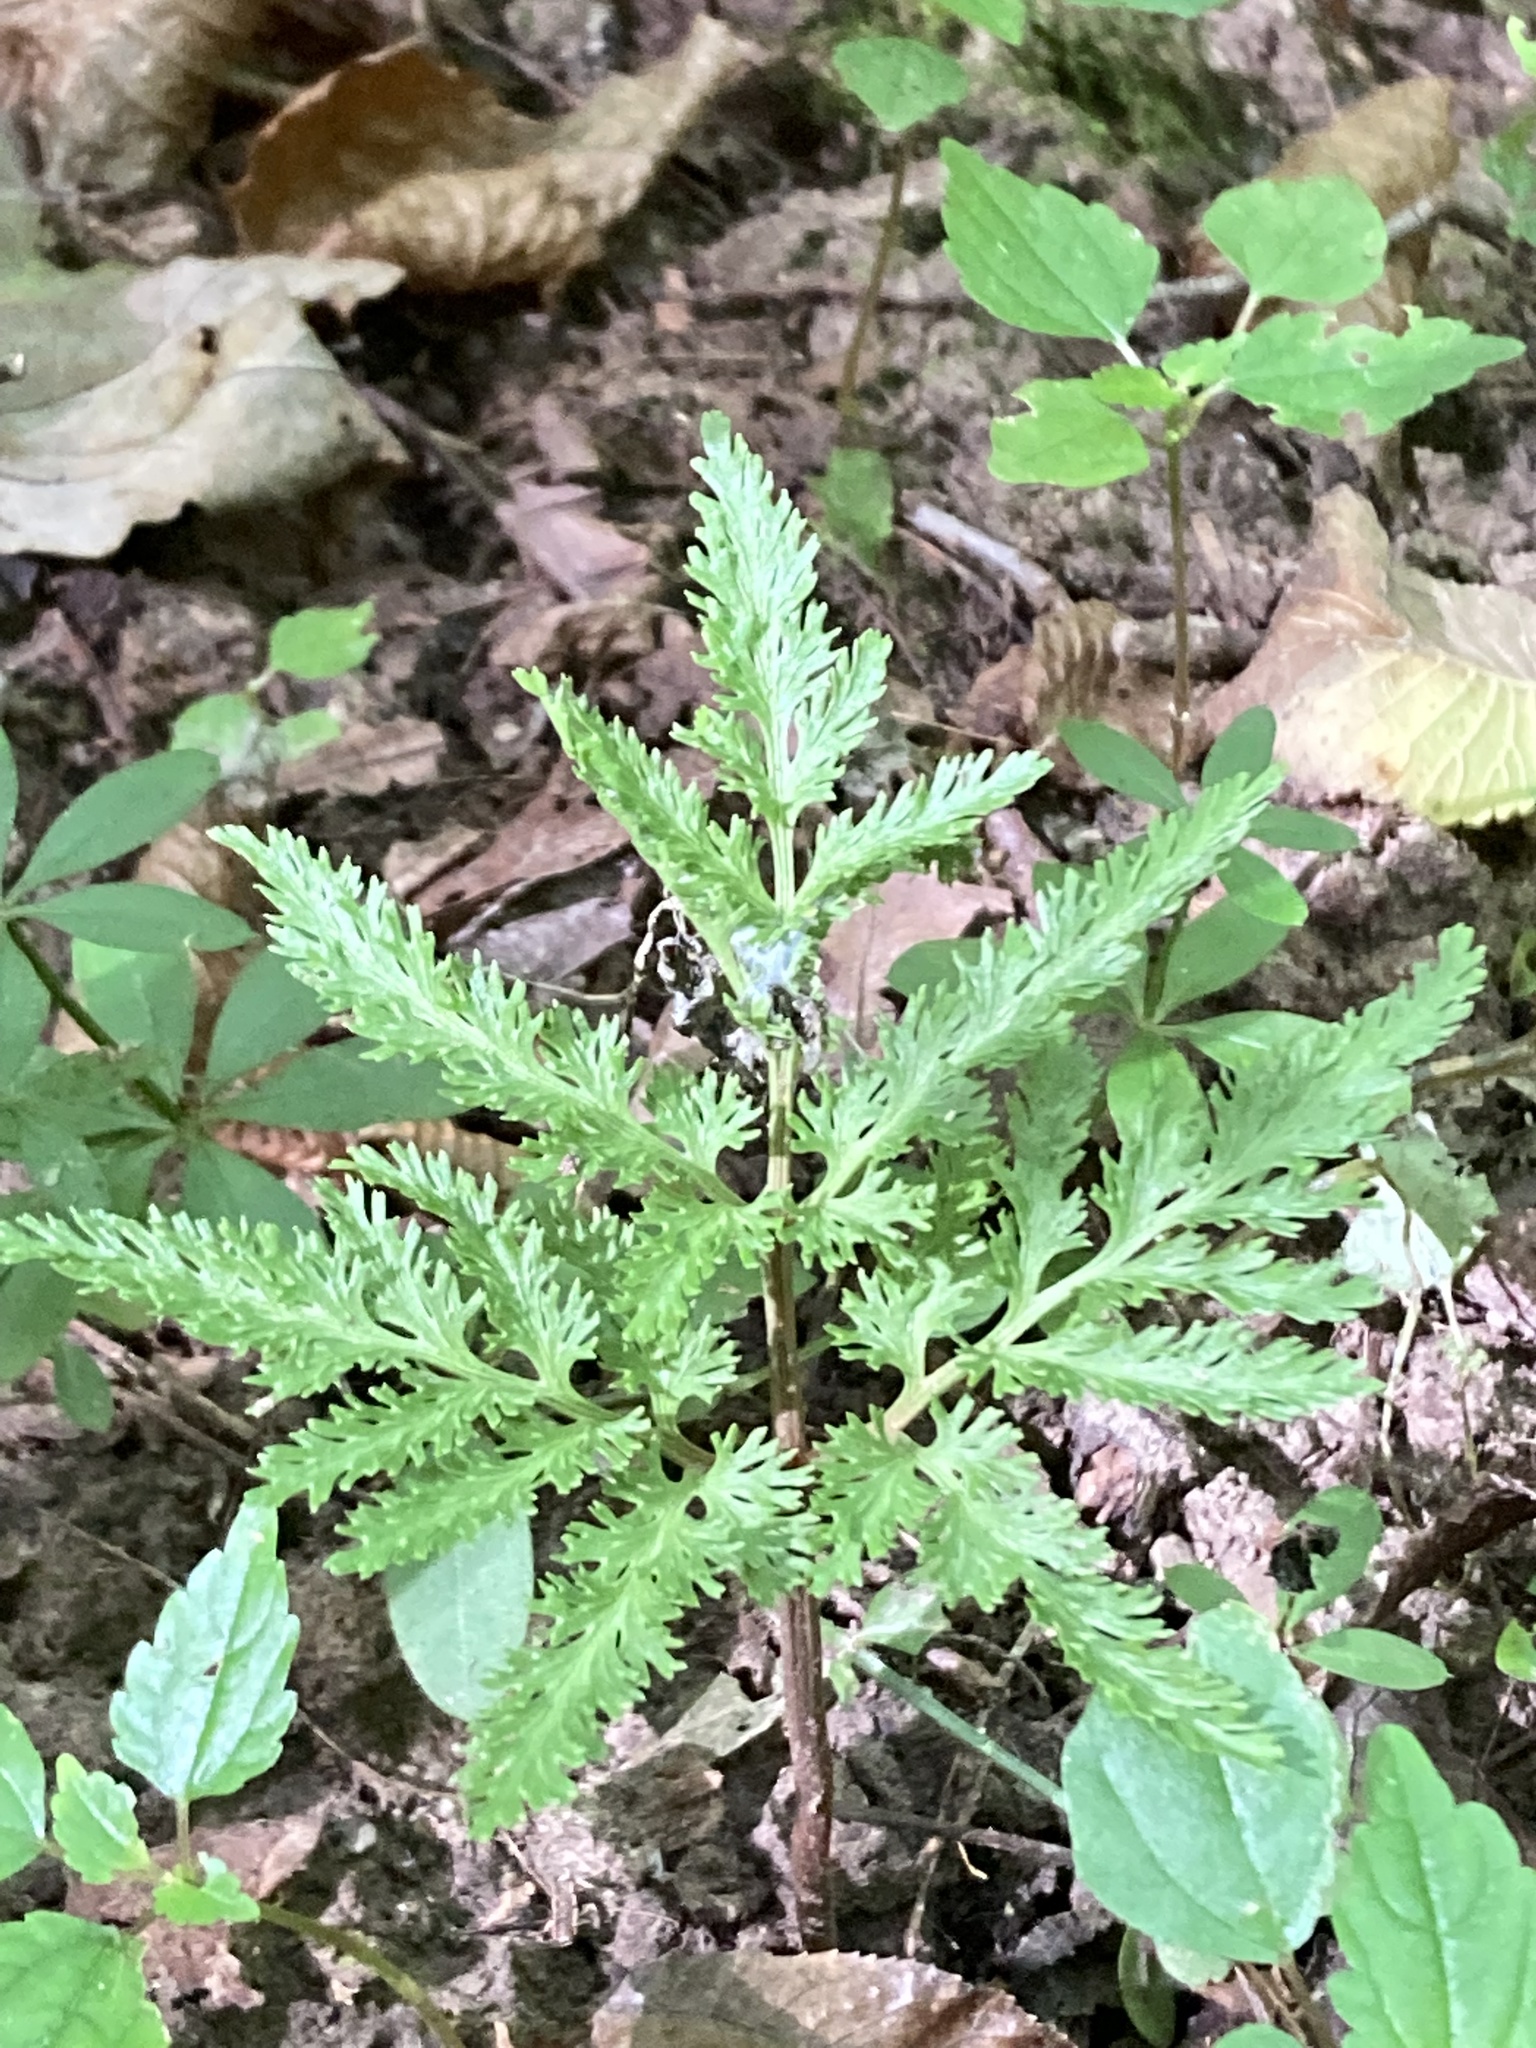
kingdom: Plantae
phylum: Tracheophyta
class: Polypodiopsida
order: Ophioglossales
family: Ophioglossaceae
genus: Sceptridium
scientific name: Sceptridium dissectum
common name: Cut-leaved grapefern
